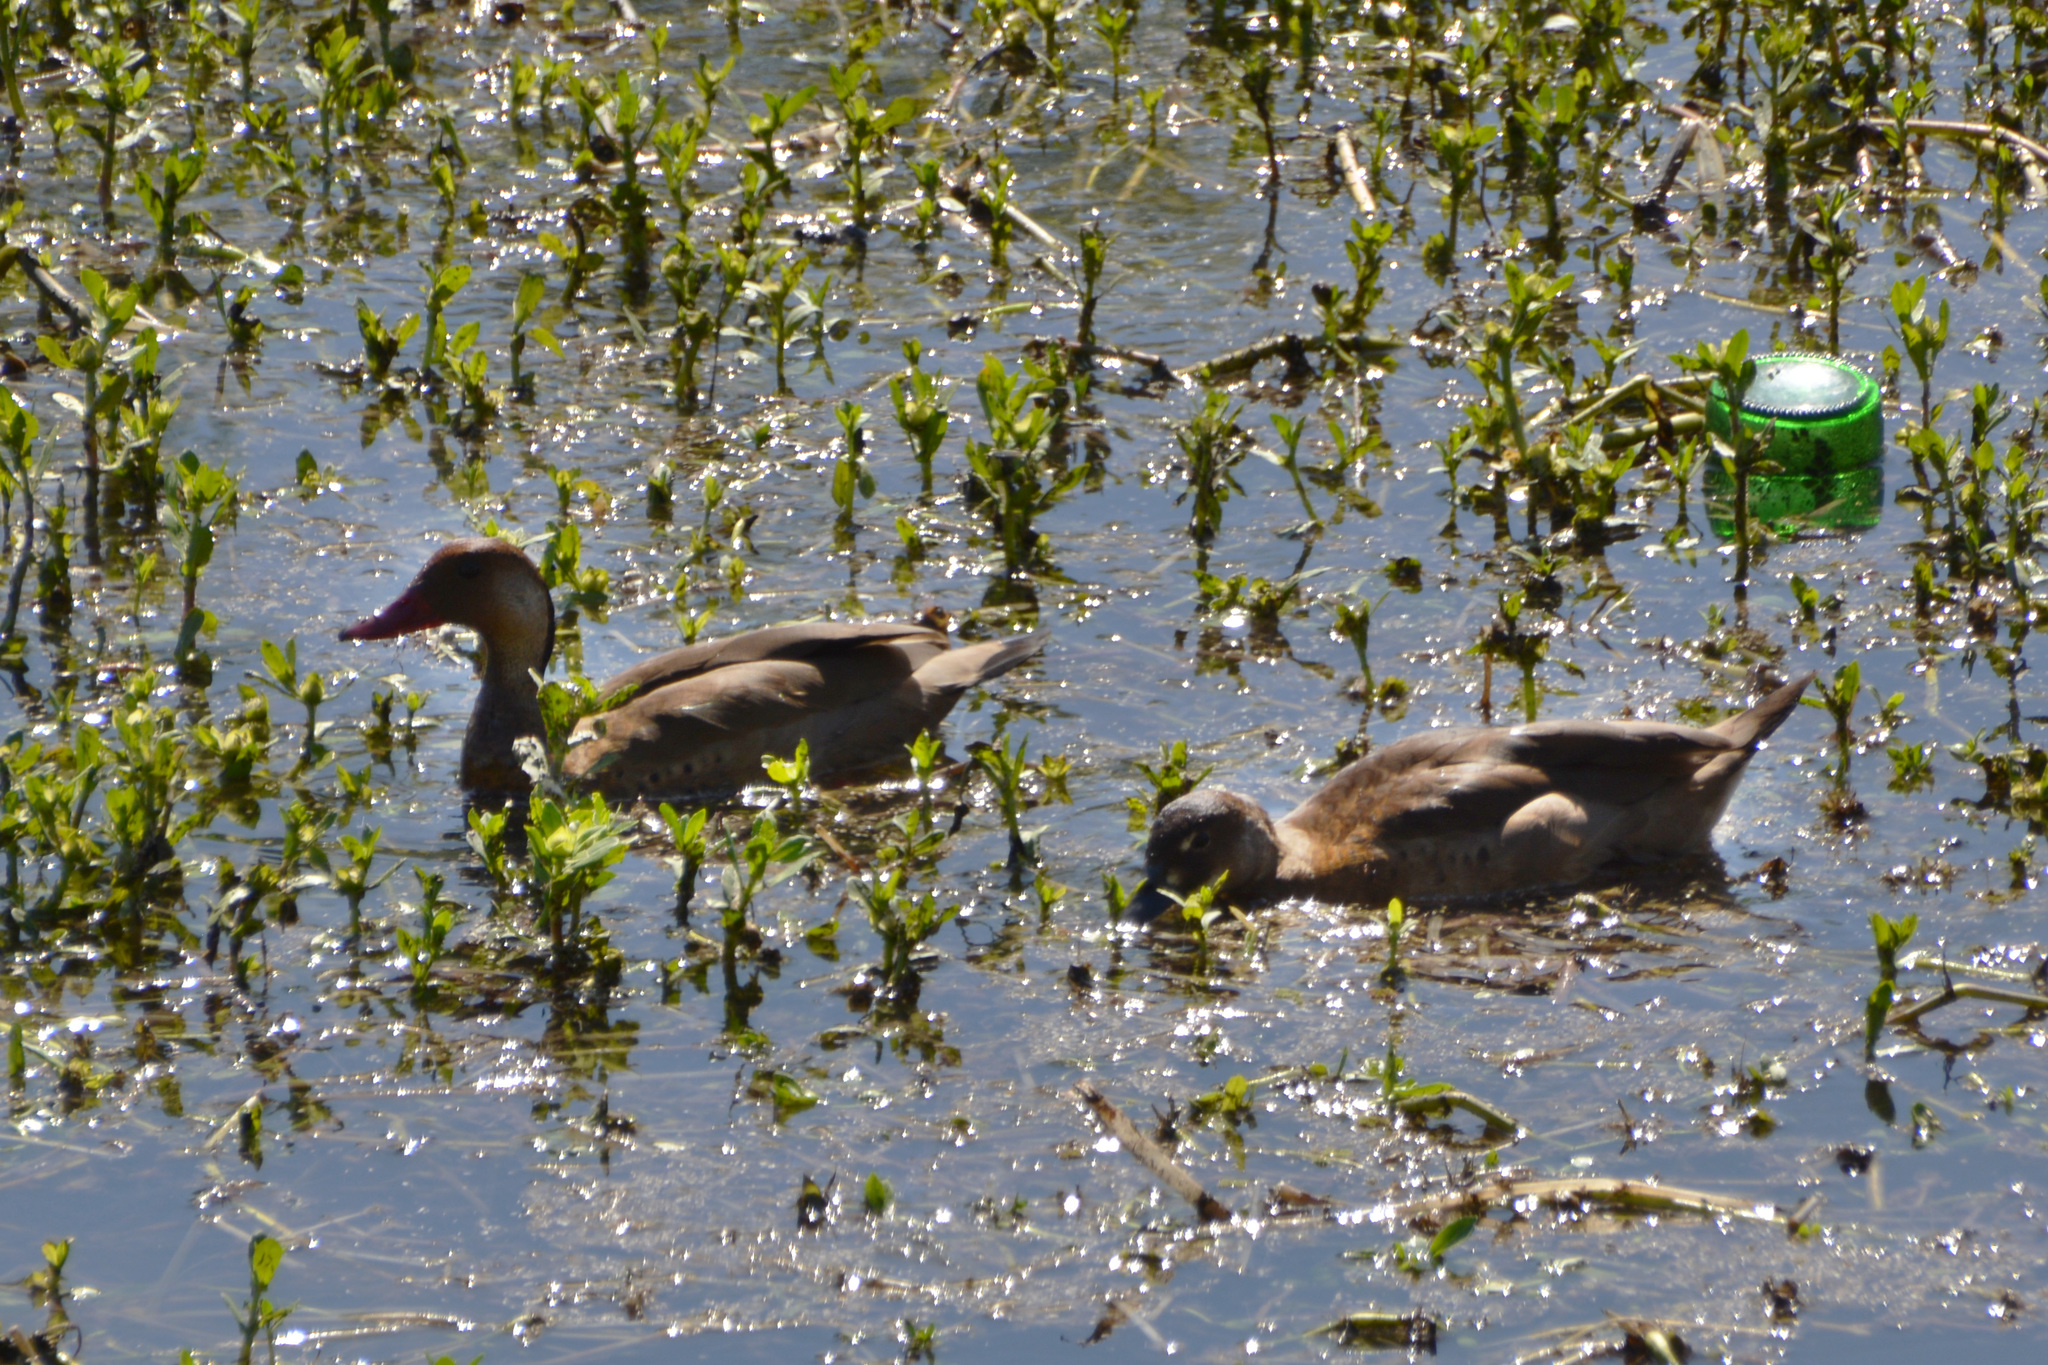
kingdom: Animalia
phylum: Chordata
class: Aves
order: Anseriformes
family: Anatidae
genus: Amazonetta
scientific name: Amazonetta brasiliensis
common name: Brazilian teal
